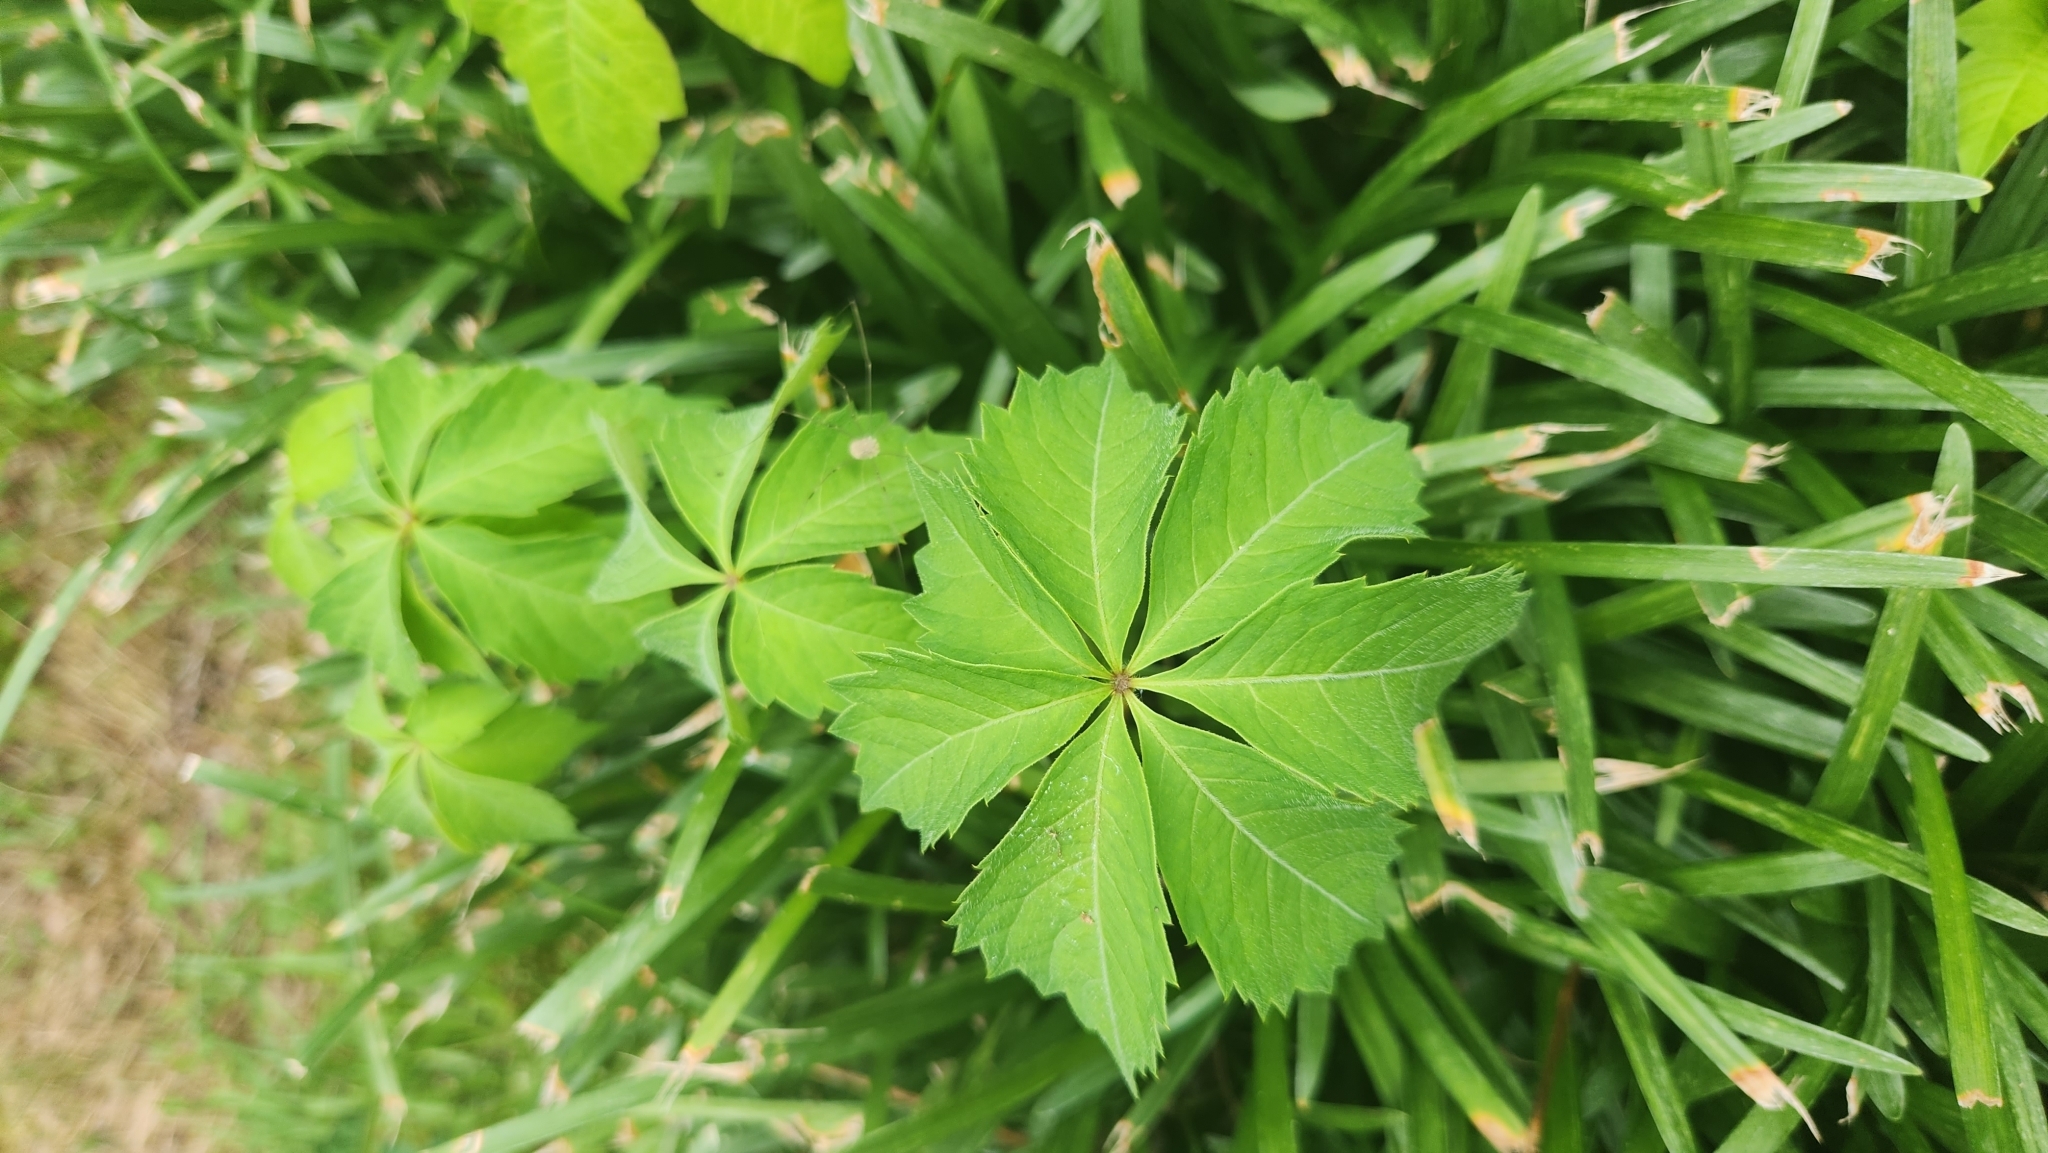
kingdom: Plantae
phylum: Tracheophyta
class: Magnoliopsida
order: Vitales
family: Vitaceae
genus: Parthenocissus
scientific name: Parthenocissus quinquefolia
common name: Virginia-creeper
